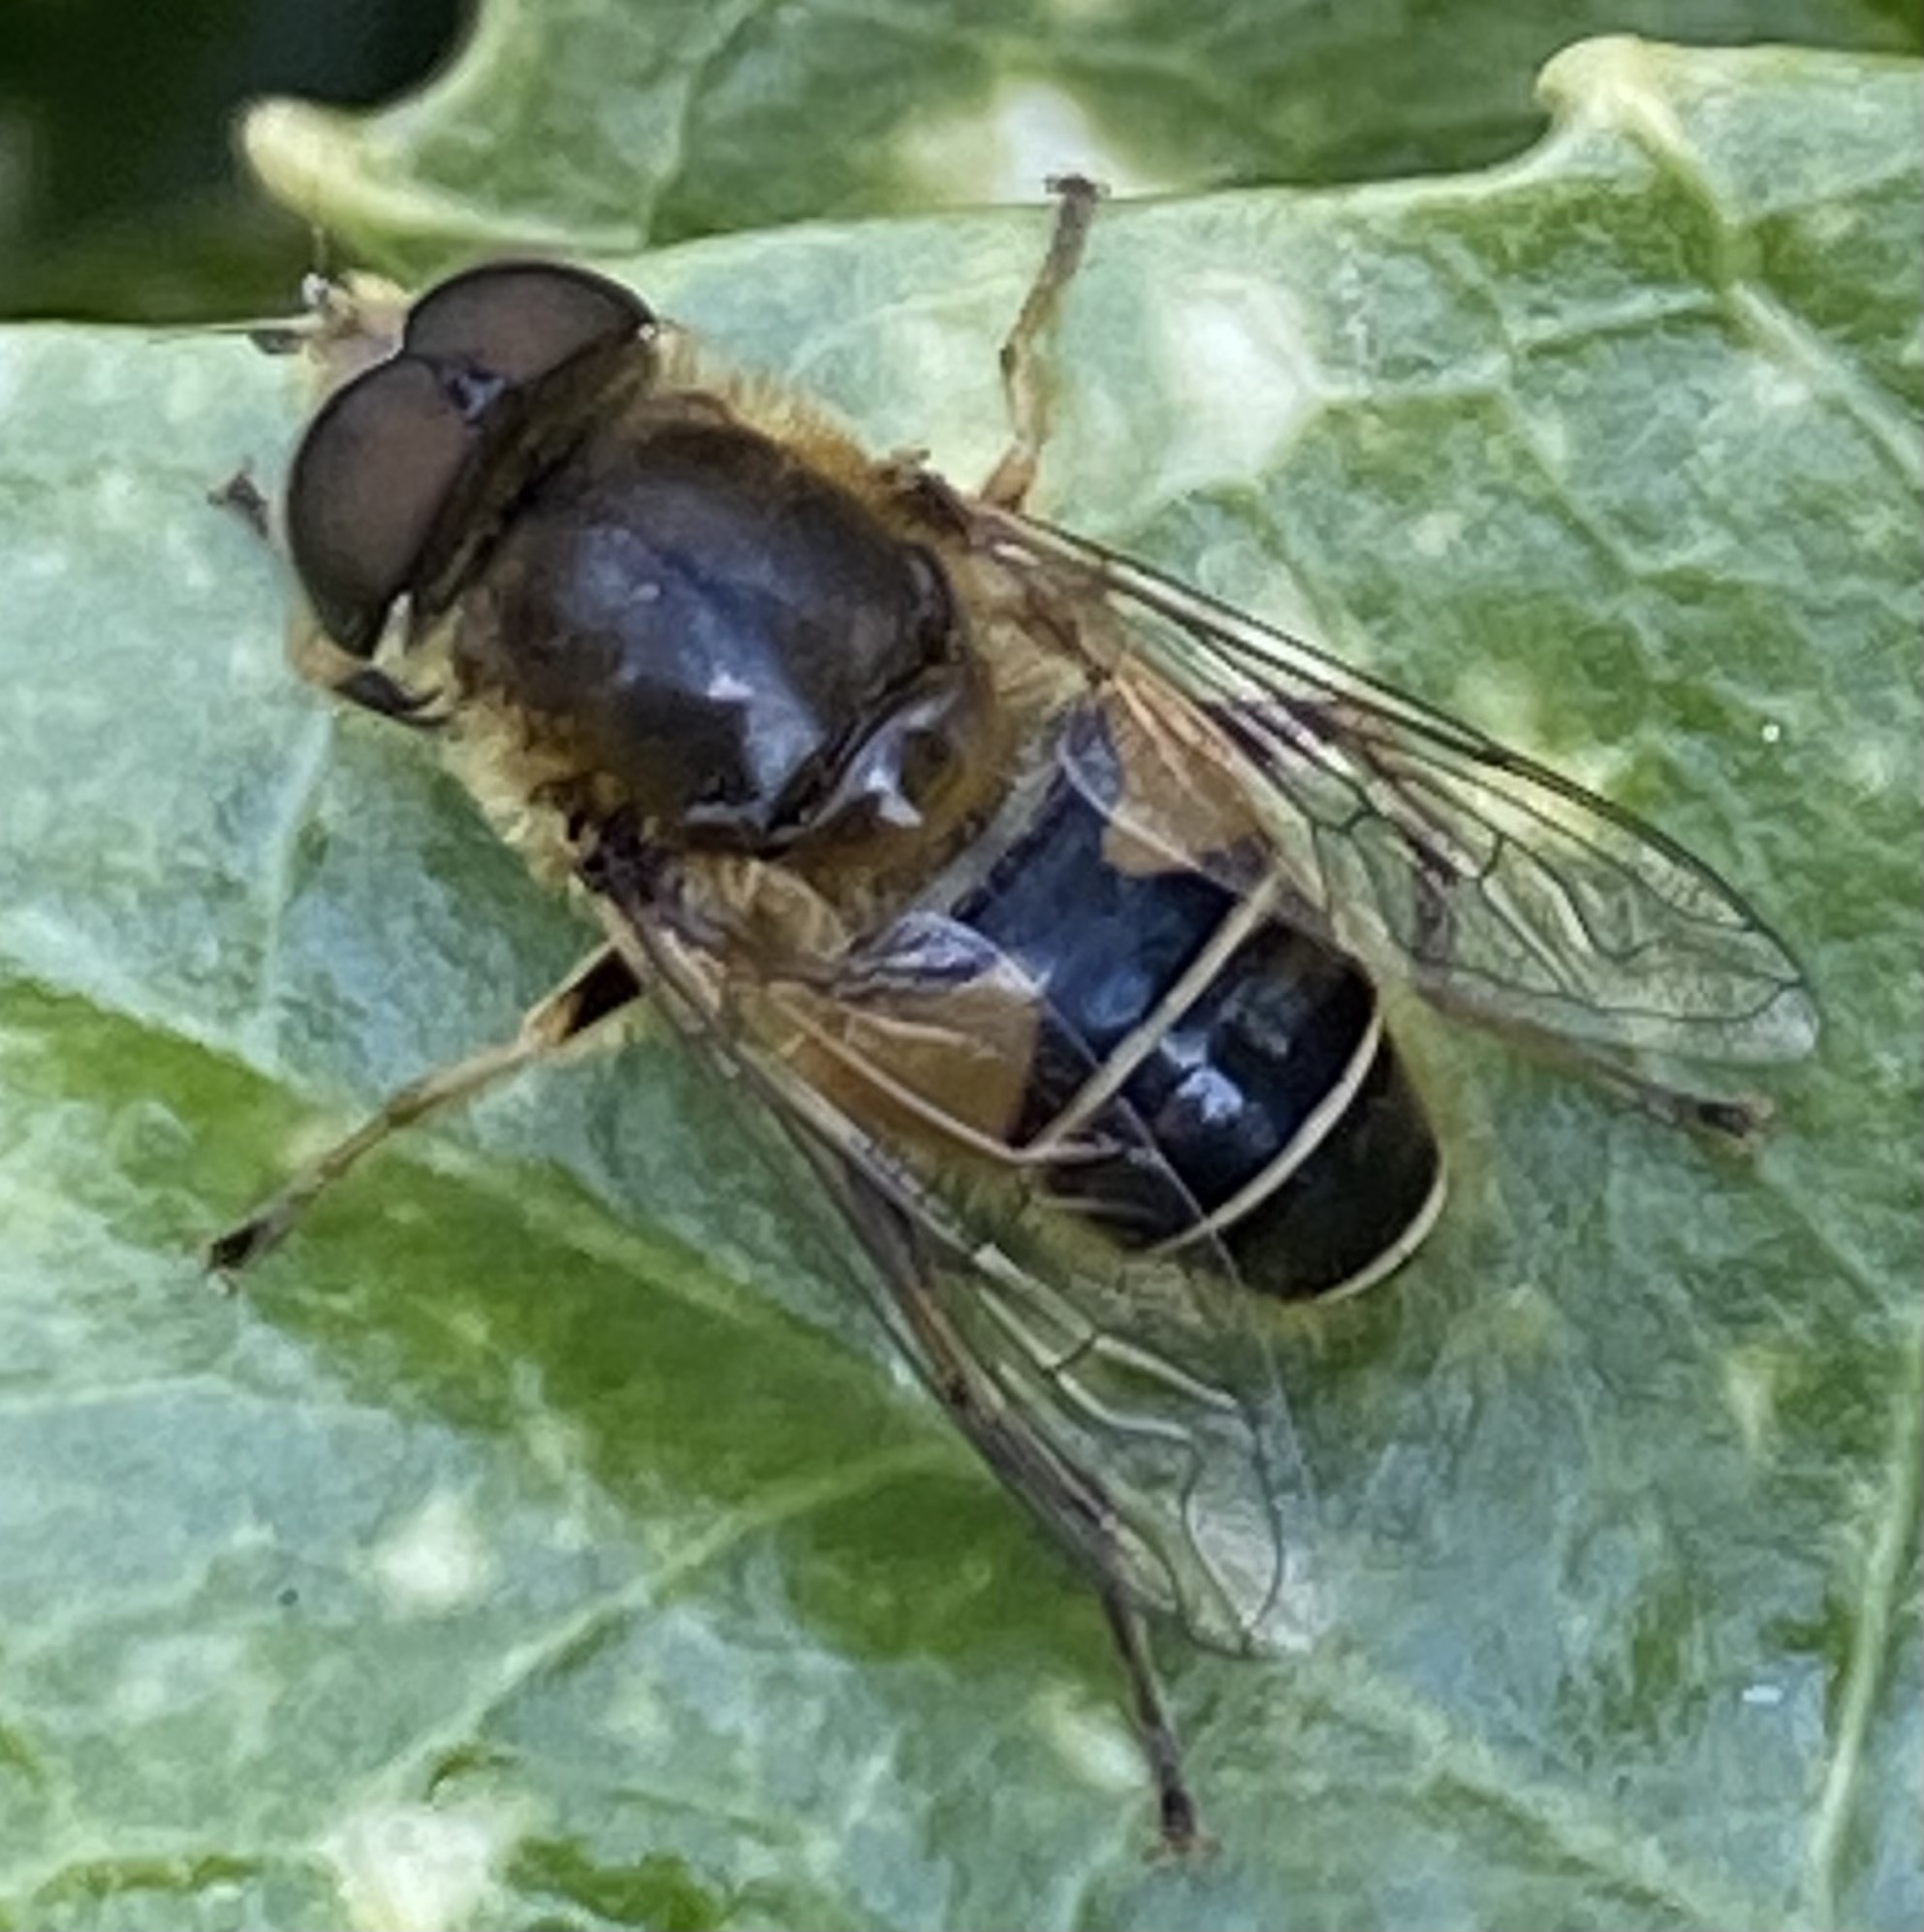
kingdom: Animalia
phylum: Arthropoda
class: Insecta
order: Diptera
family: Syrphidae
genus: Eristalis
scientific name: Eristalis nemorum
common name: Orange-spined drone fly
